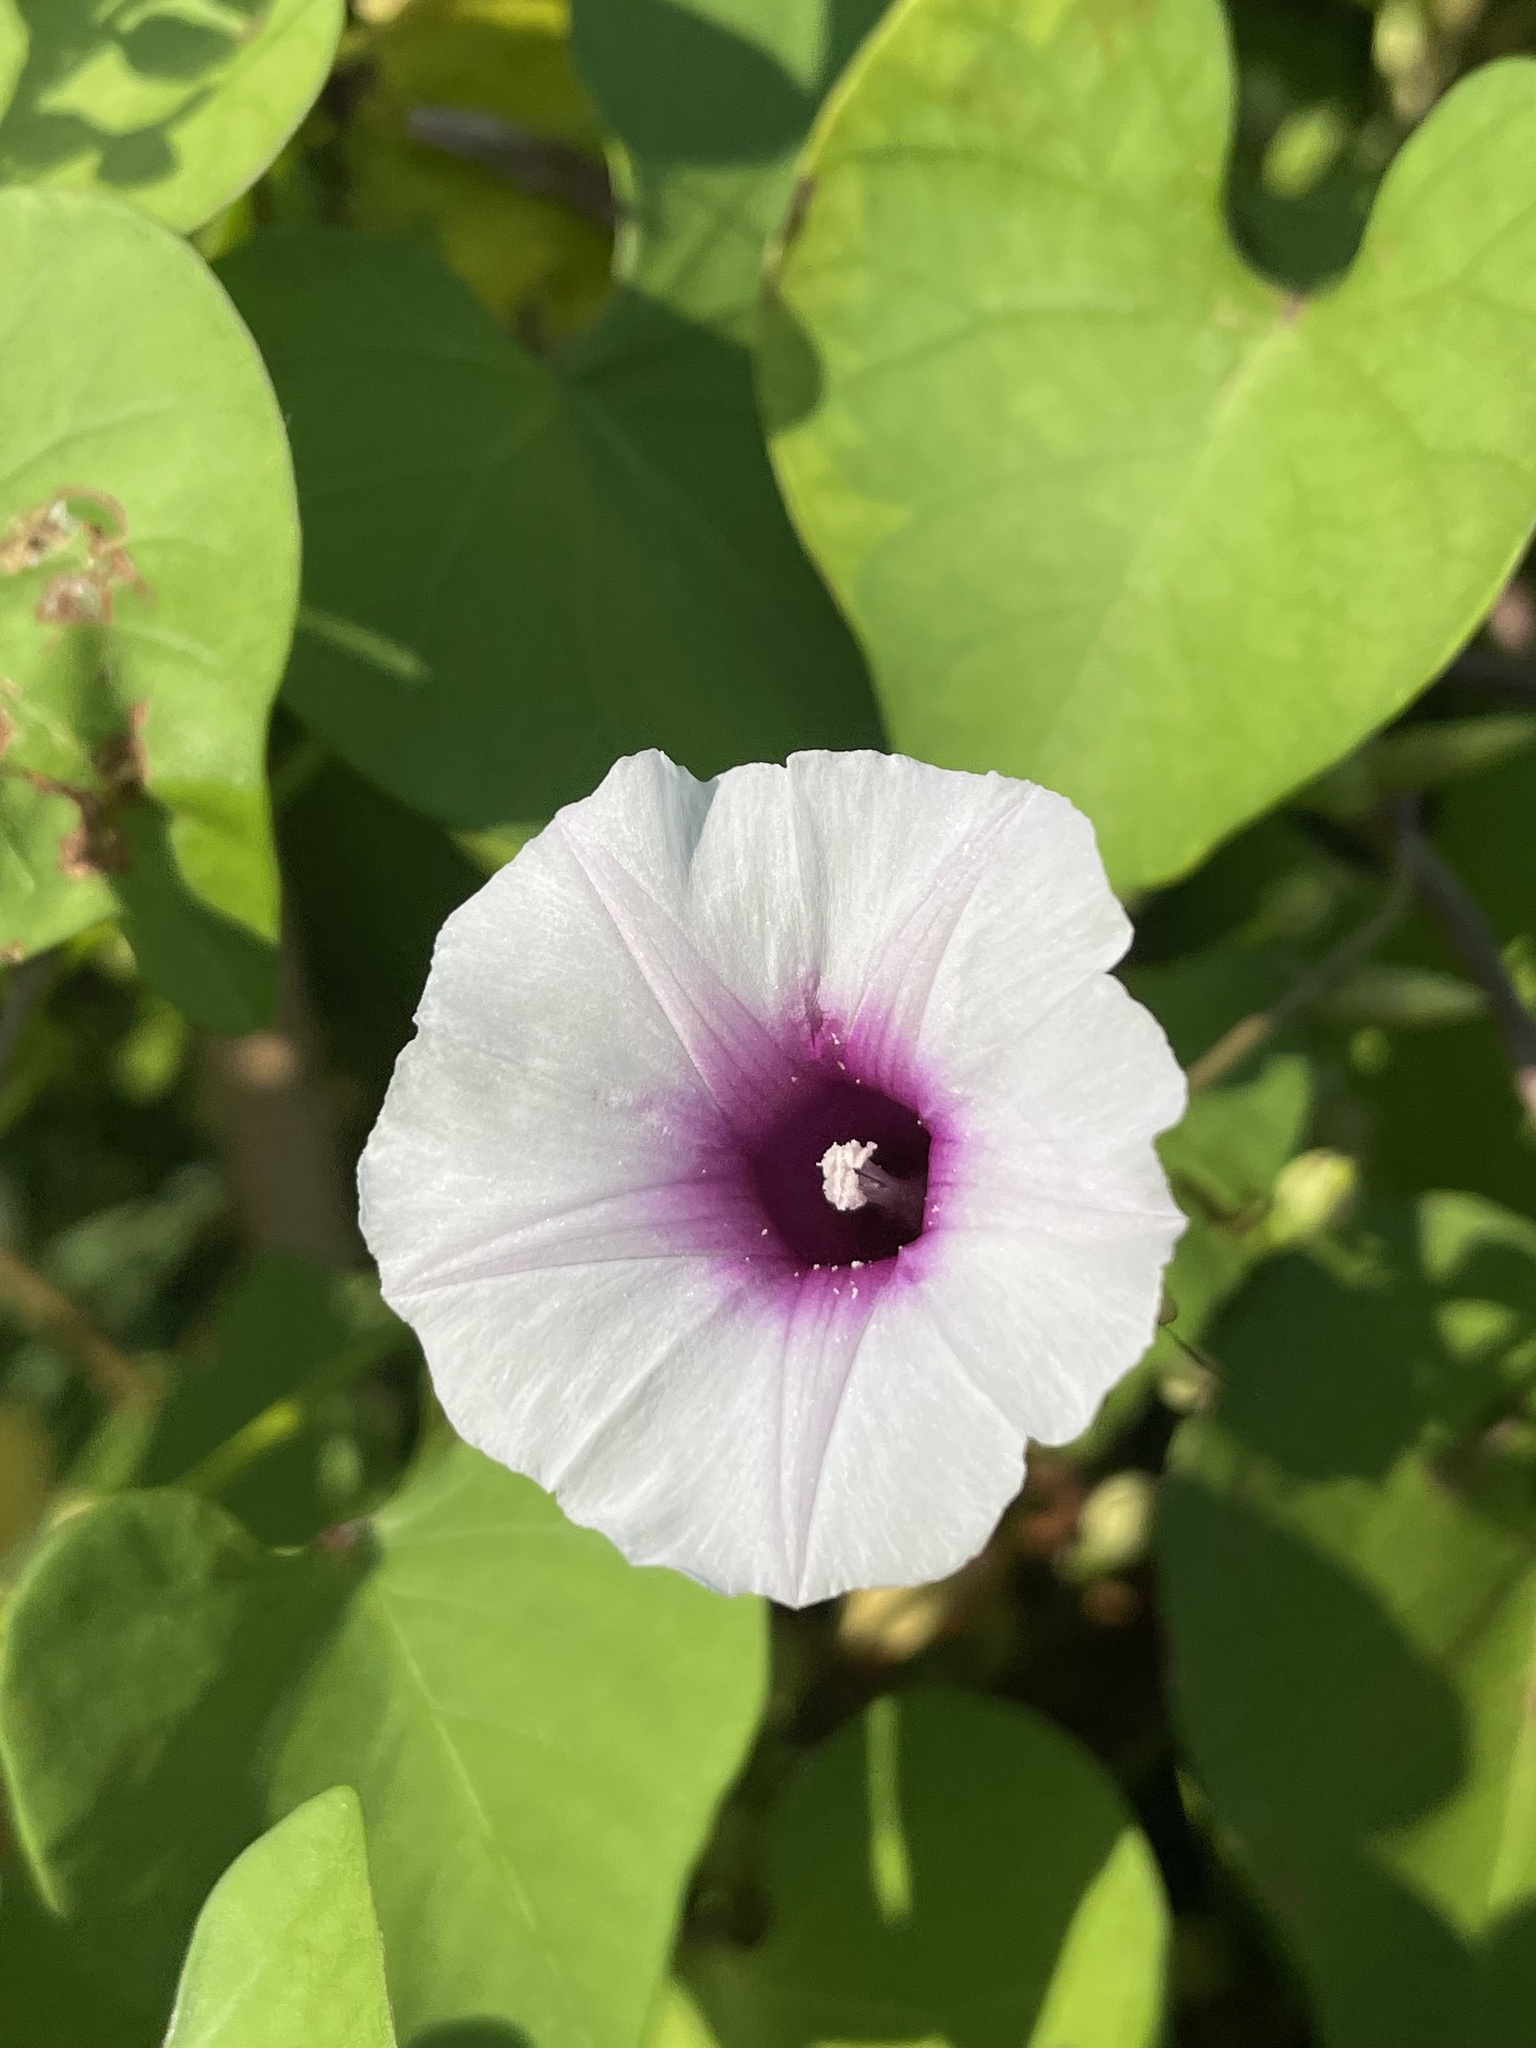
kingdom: Plantae
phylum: Tracheophyta
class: Magnoliopsida
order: Solanales
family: Convolvulaceae
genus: Ipomoea
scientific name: Ipomoea amnicola
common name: Redcenter morning-glory
